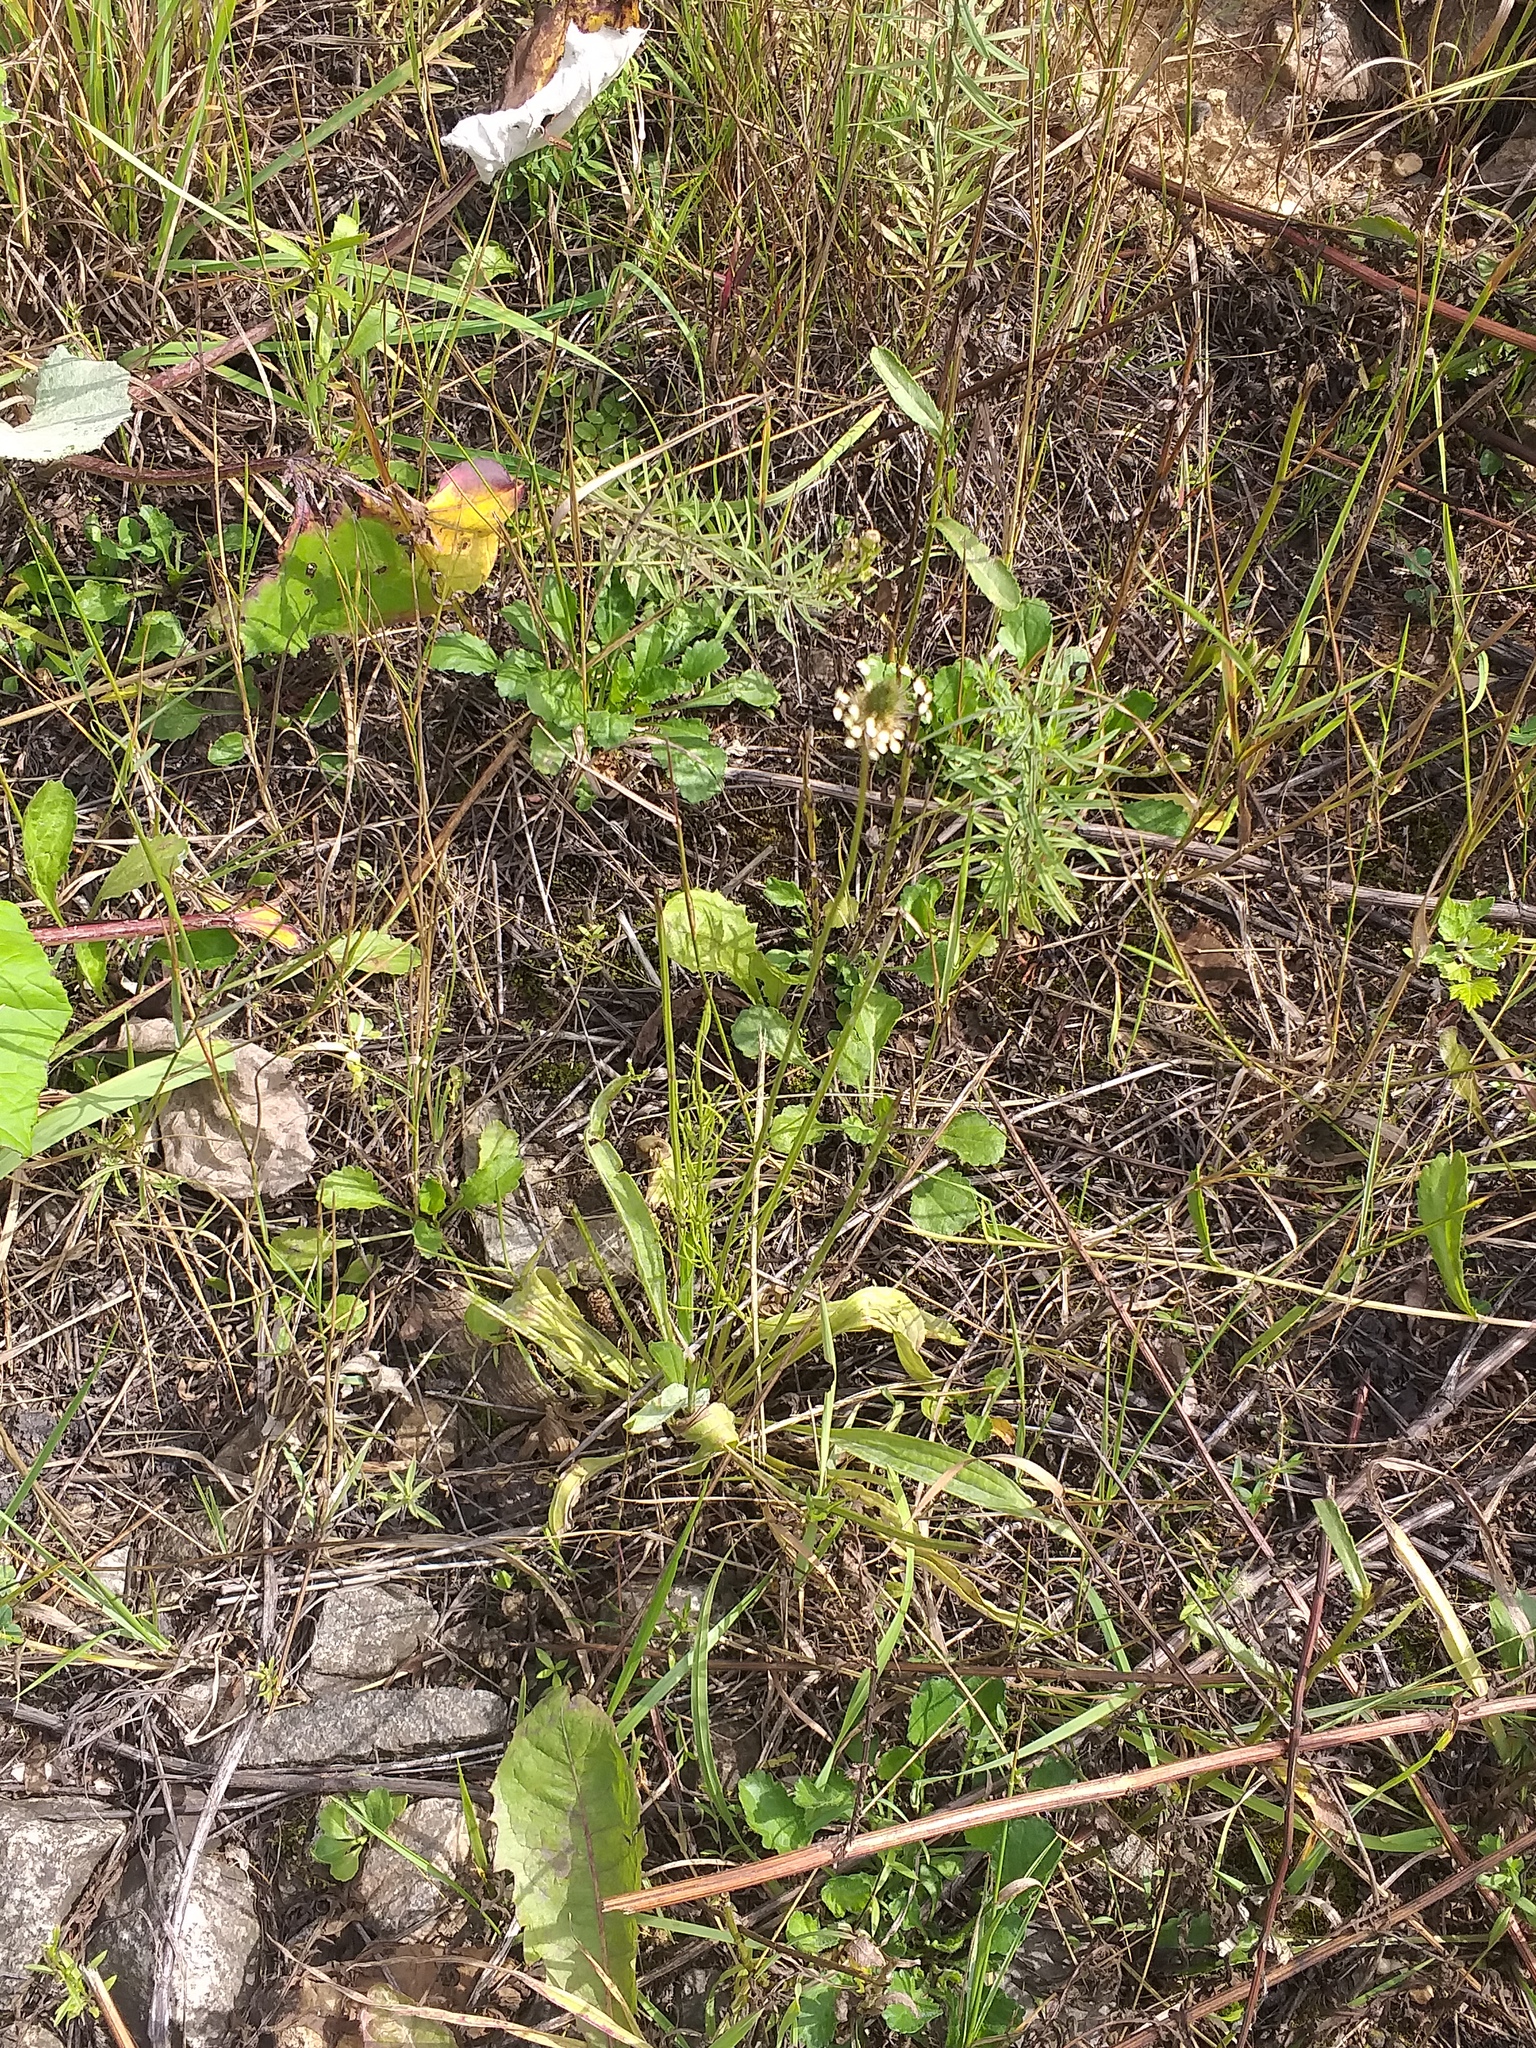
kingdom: Plantae
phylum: Tracheophyta
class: Magnoliopsida
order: Lamiales
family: Plantaginaceae
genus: Plantago
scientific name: Plantago lanceolata
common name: Ribwort plantain
